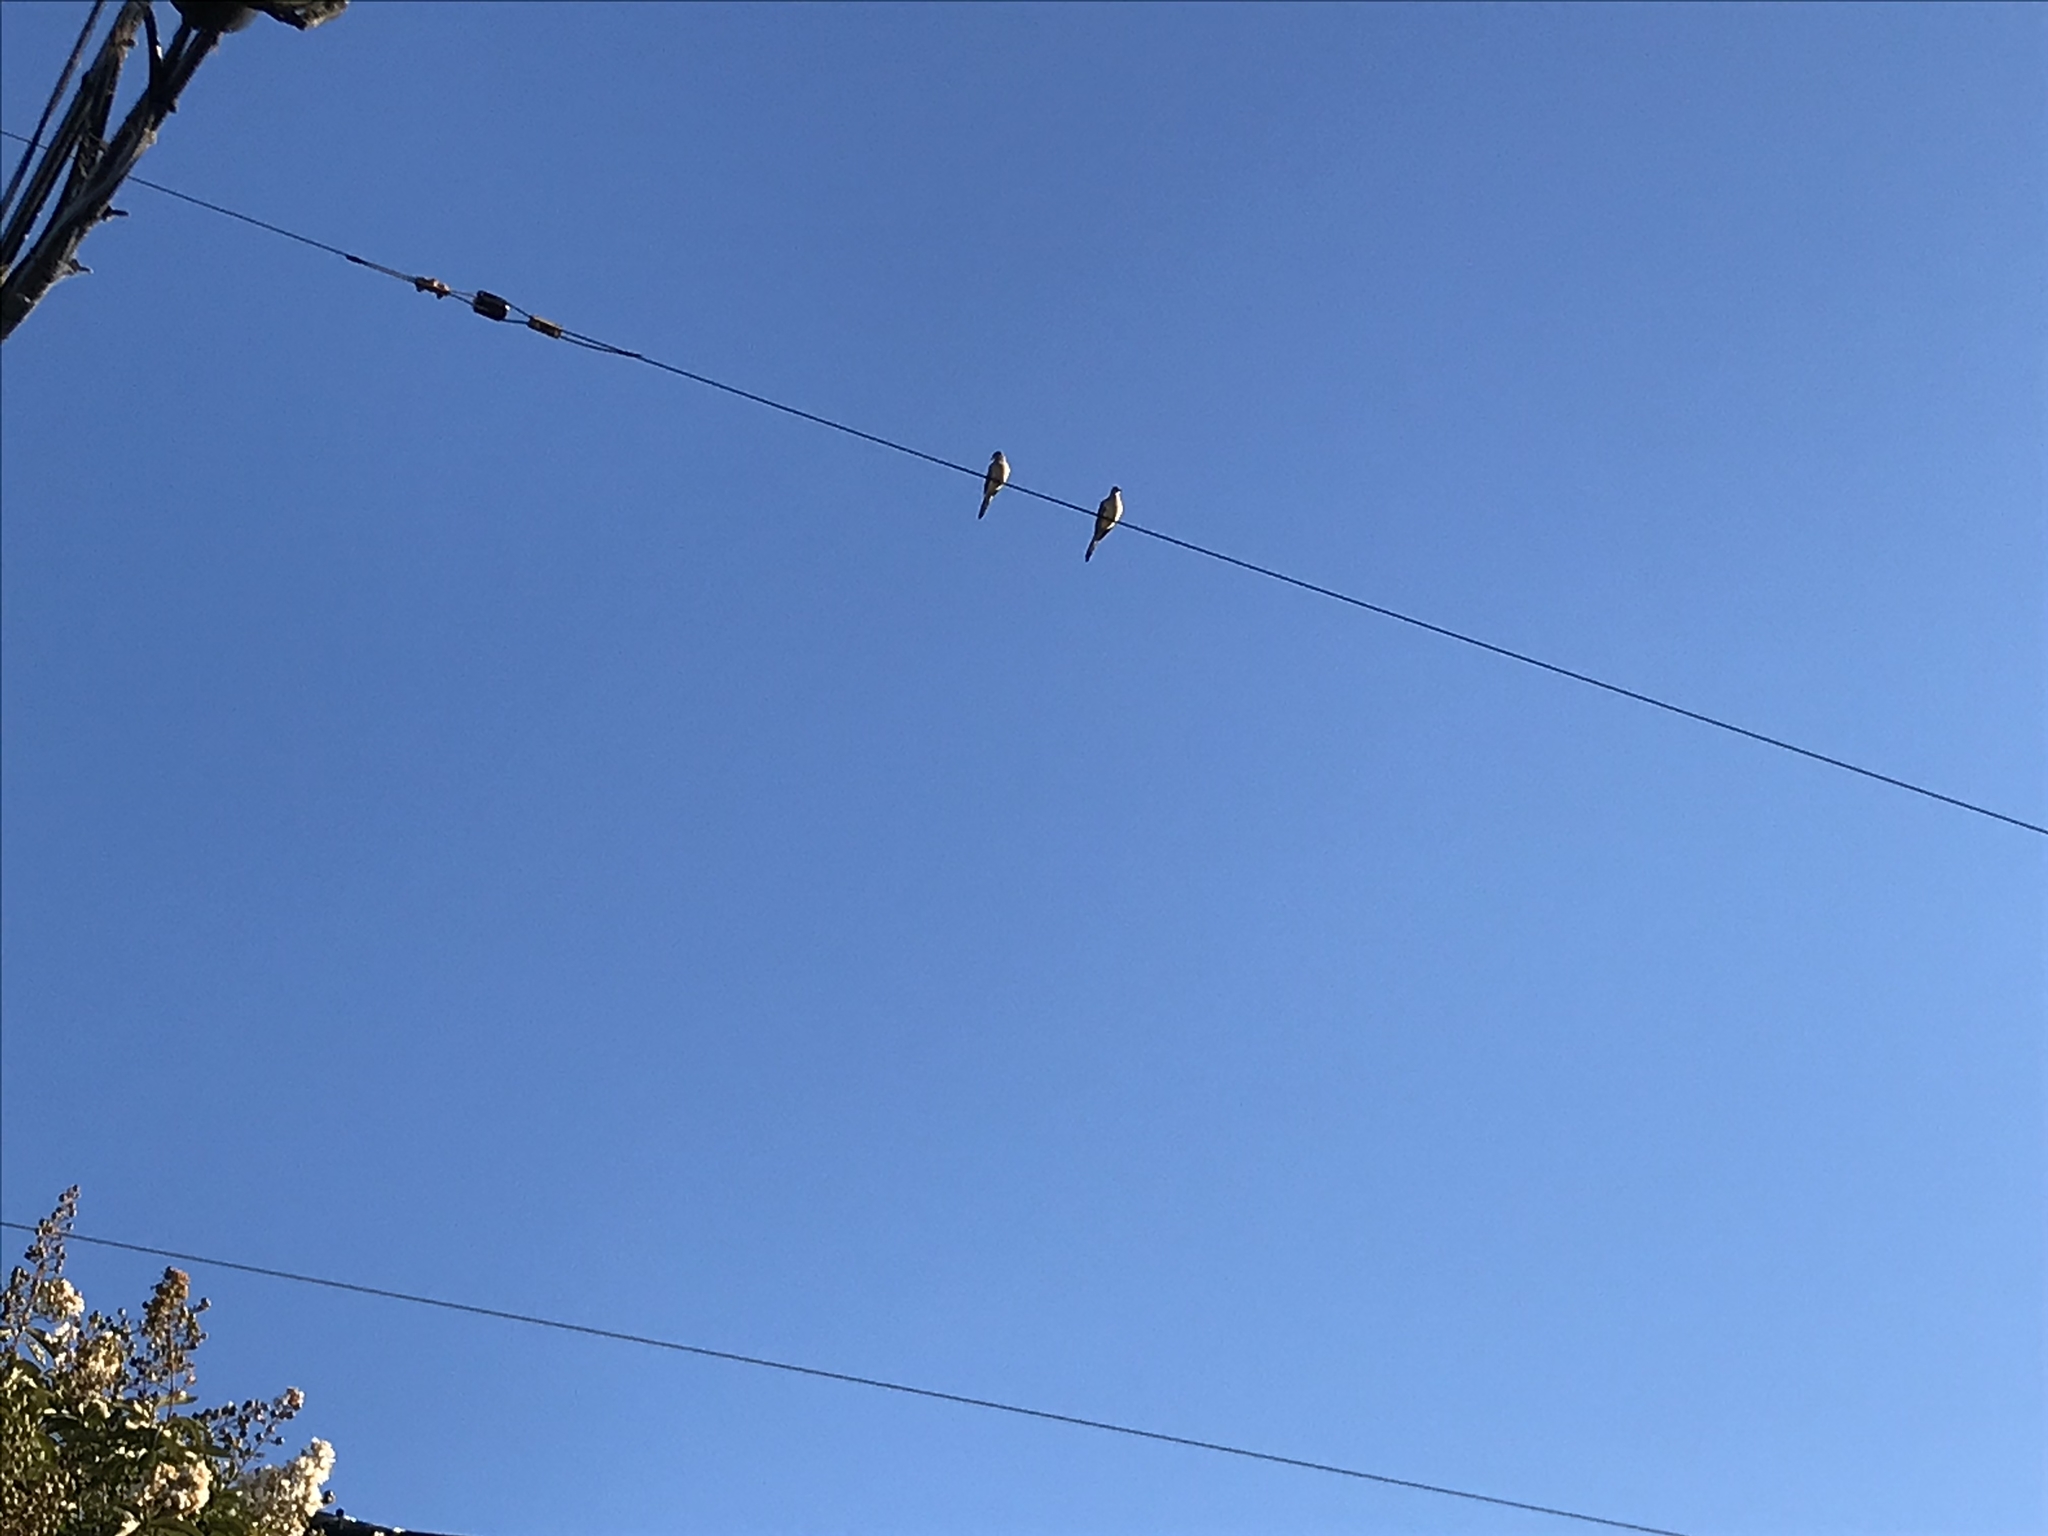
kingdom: Animalia
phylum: Chordata
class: Aves
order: Columbiformes
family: Columbidae
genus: Zenaida
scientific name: Zenaida macroura
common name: Mourning dove
